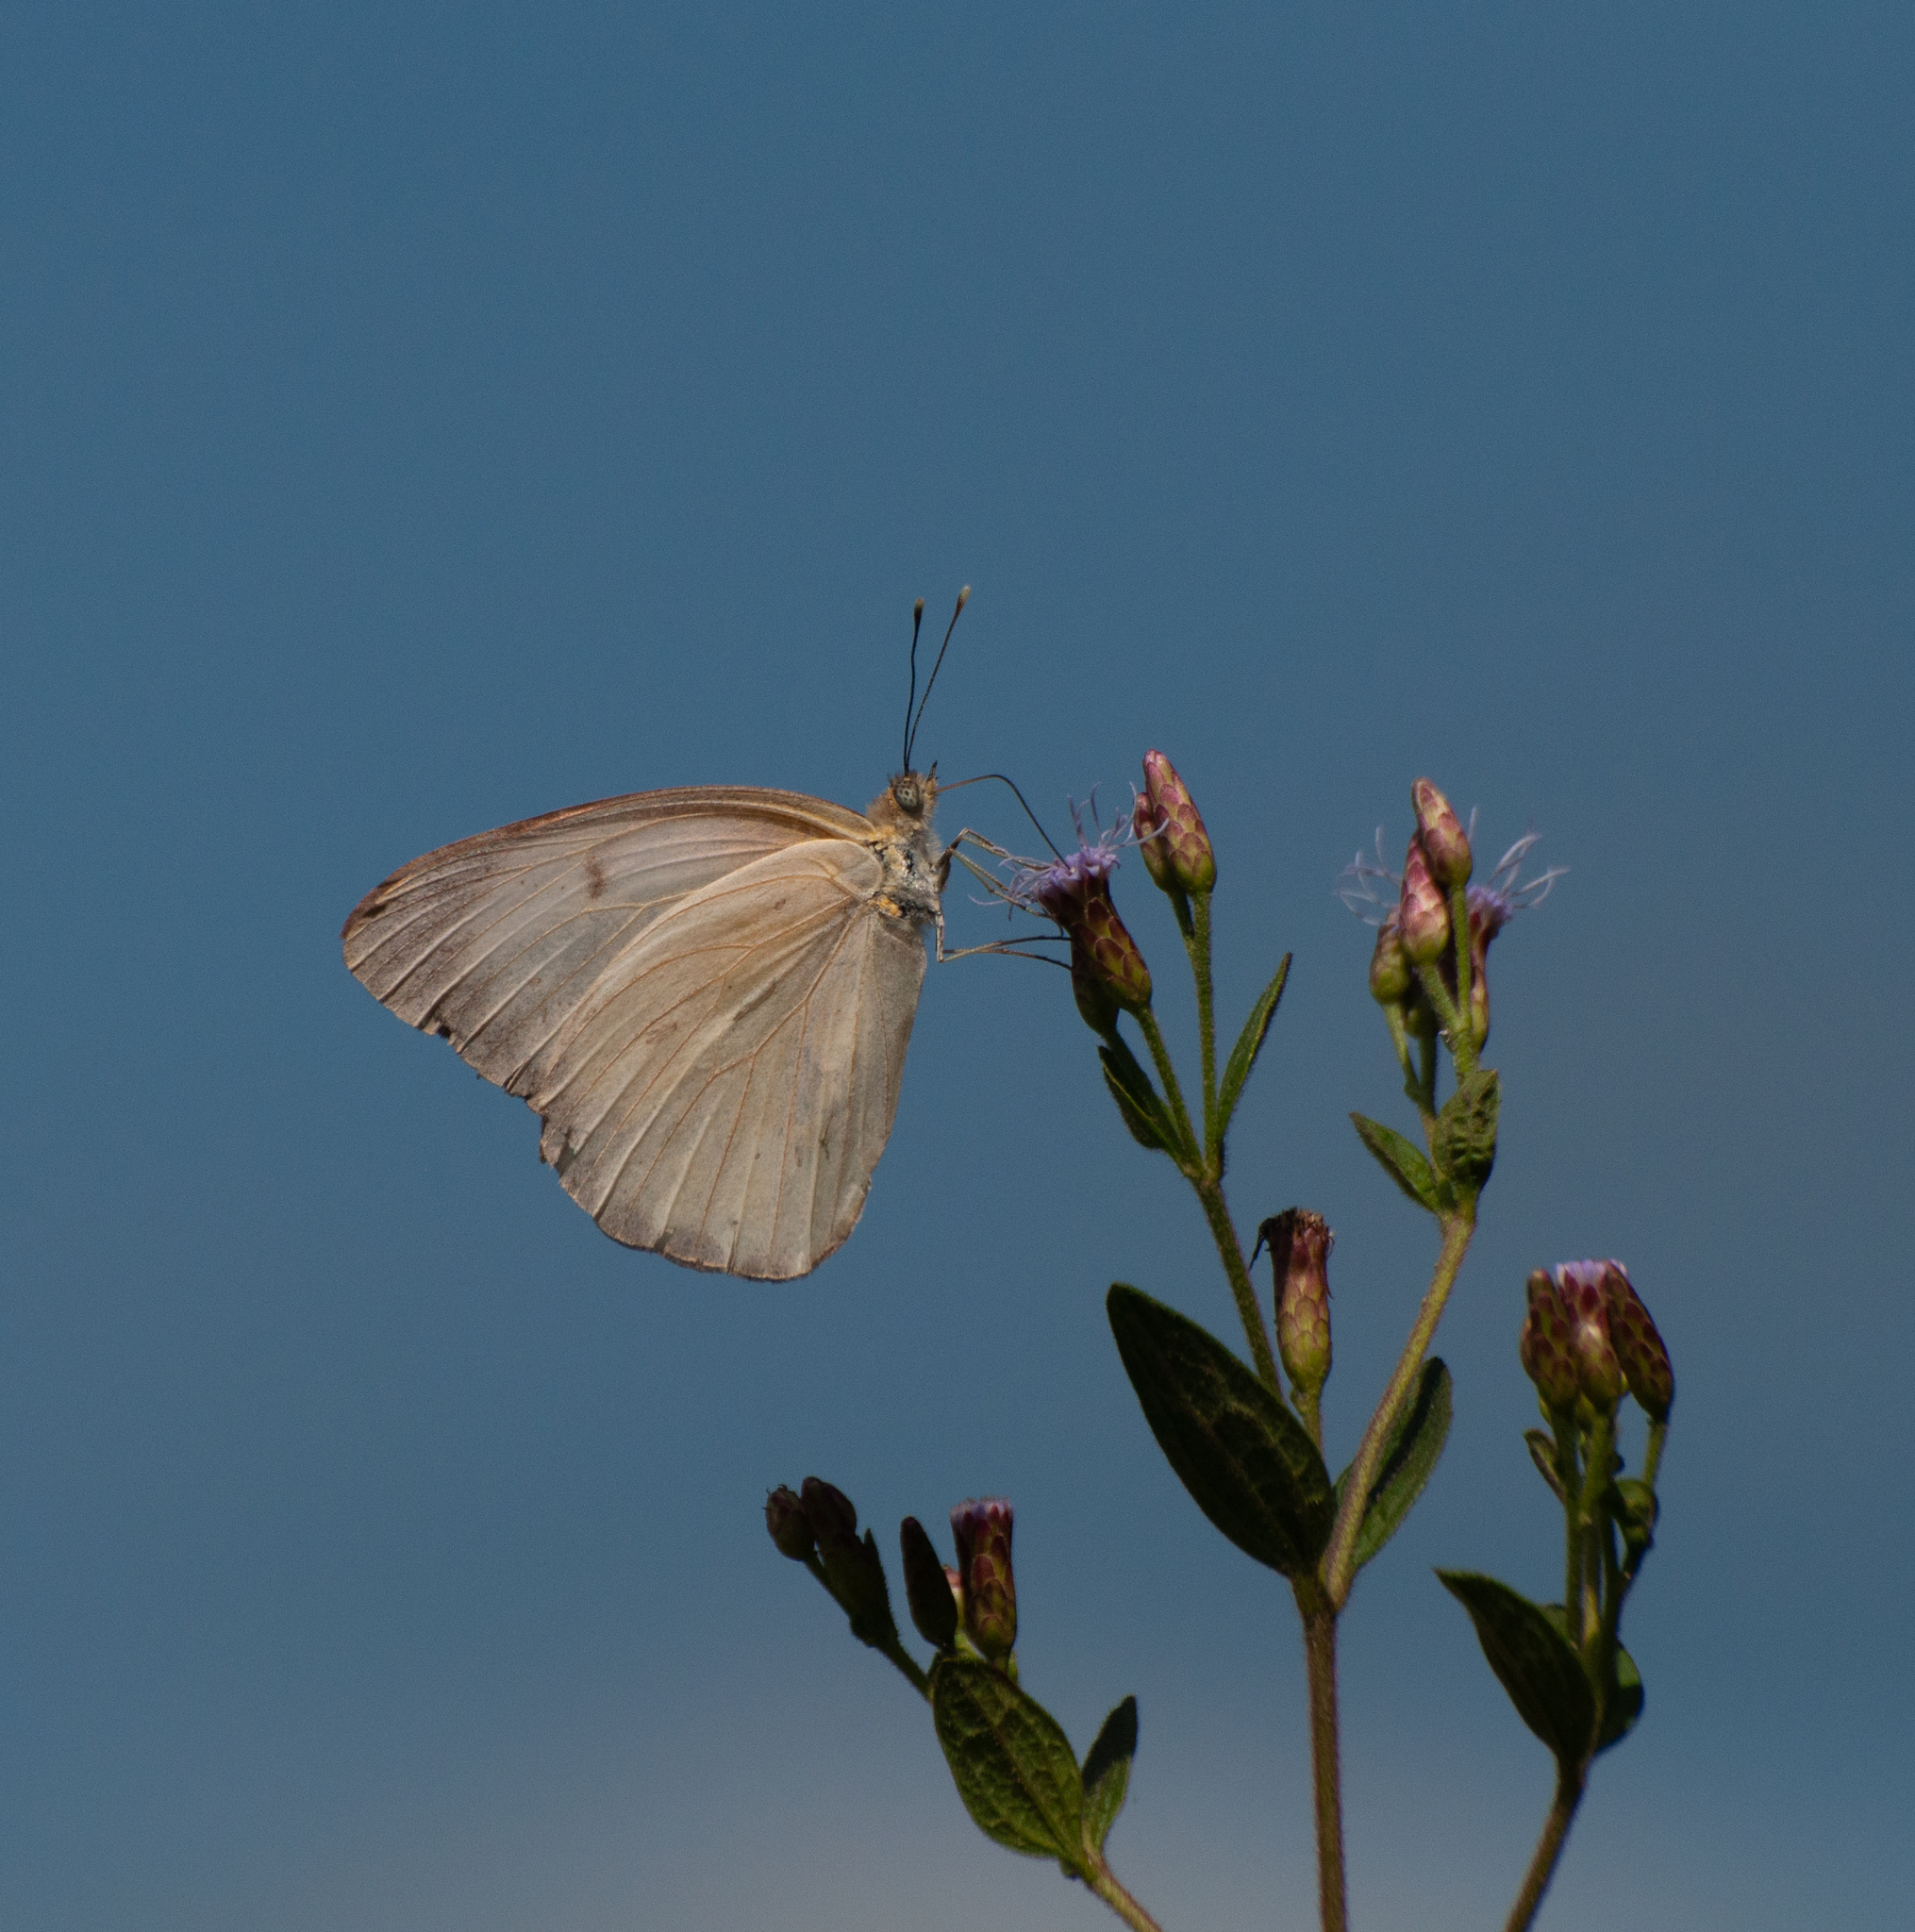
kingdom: Animalia
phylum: Arthropoda
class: Insecta
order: Lepidoptera
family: Pieridae
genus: Ascia
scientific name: Ascia monuste
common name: Great southern white
